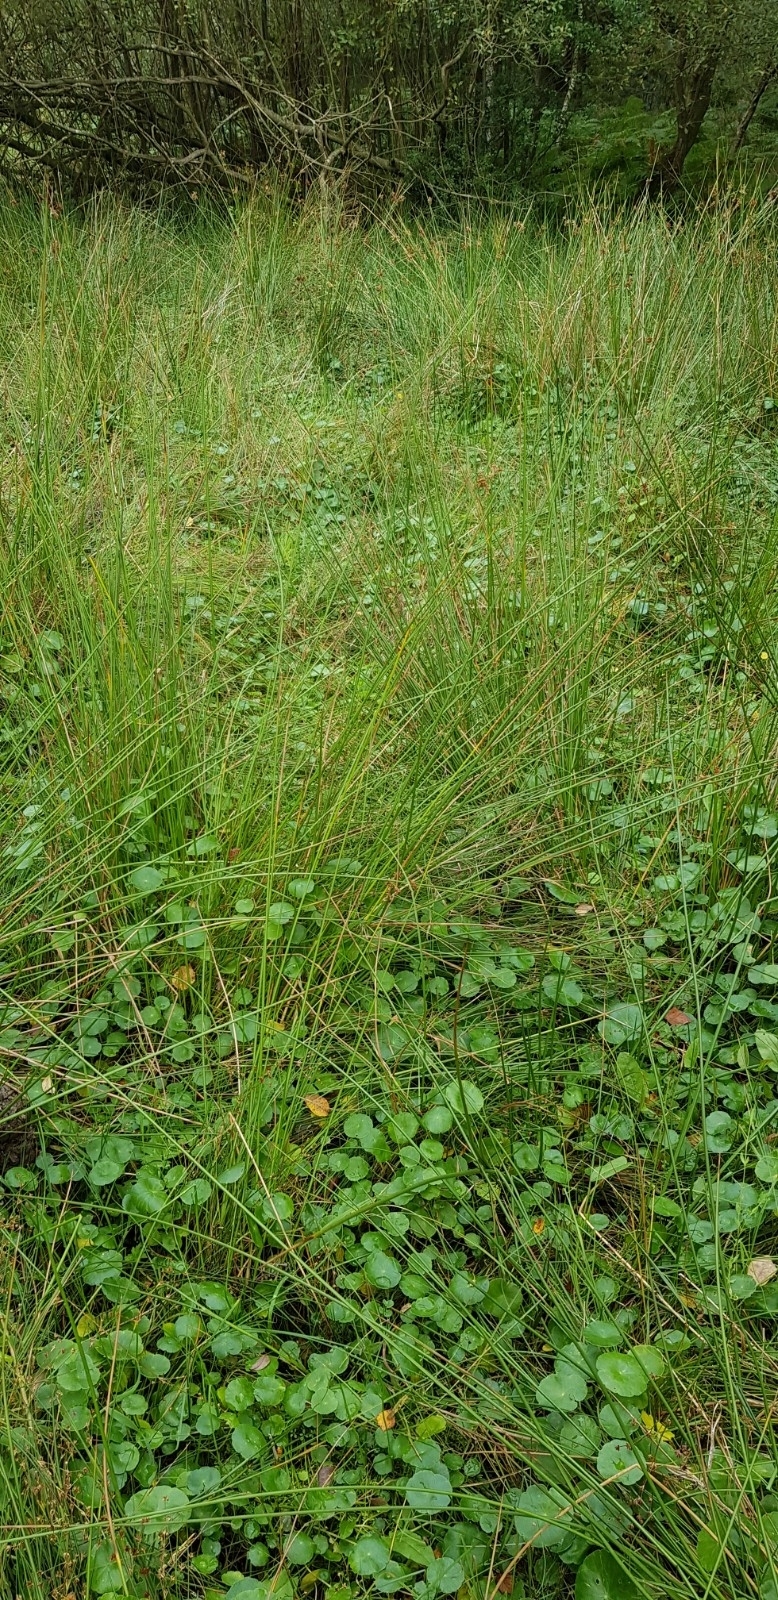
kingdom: Plantae
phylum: Tracheophyta
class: Magnoliopsida
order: Apiales
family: Araliaceae
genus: Hydrocotyle
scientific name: Hydrocotyle vulgaris
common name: Marsh pennywort
